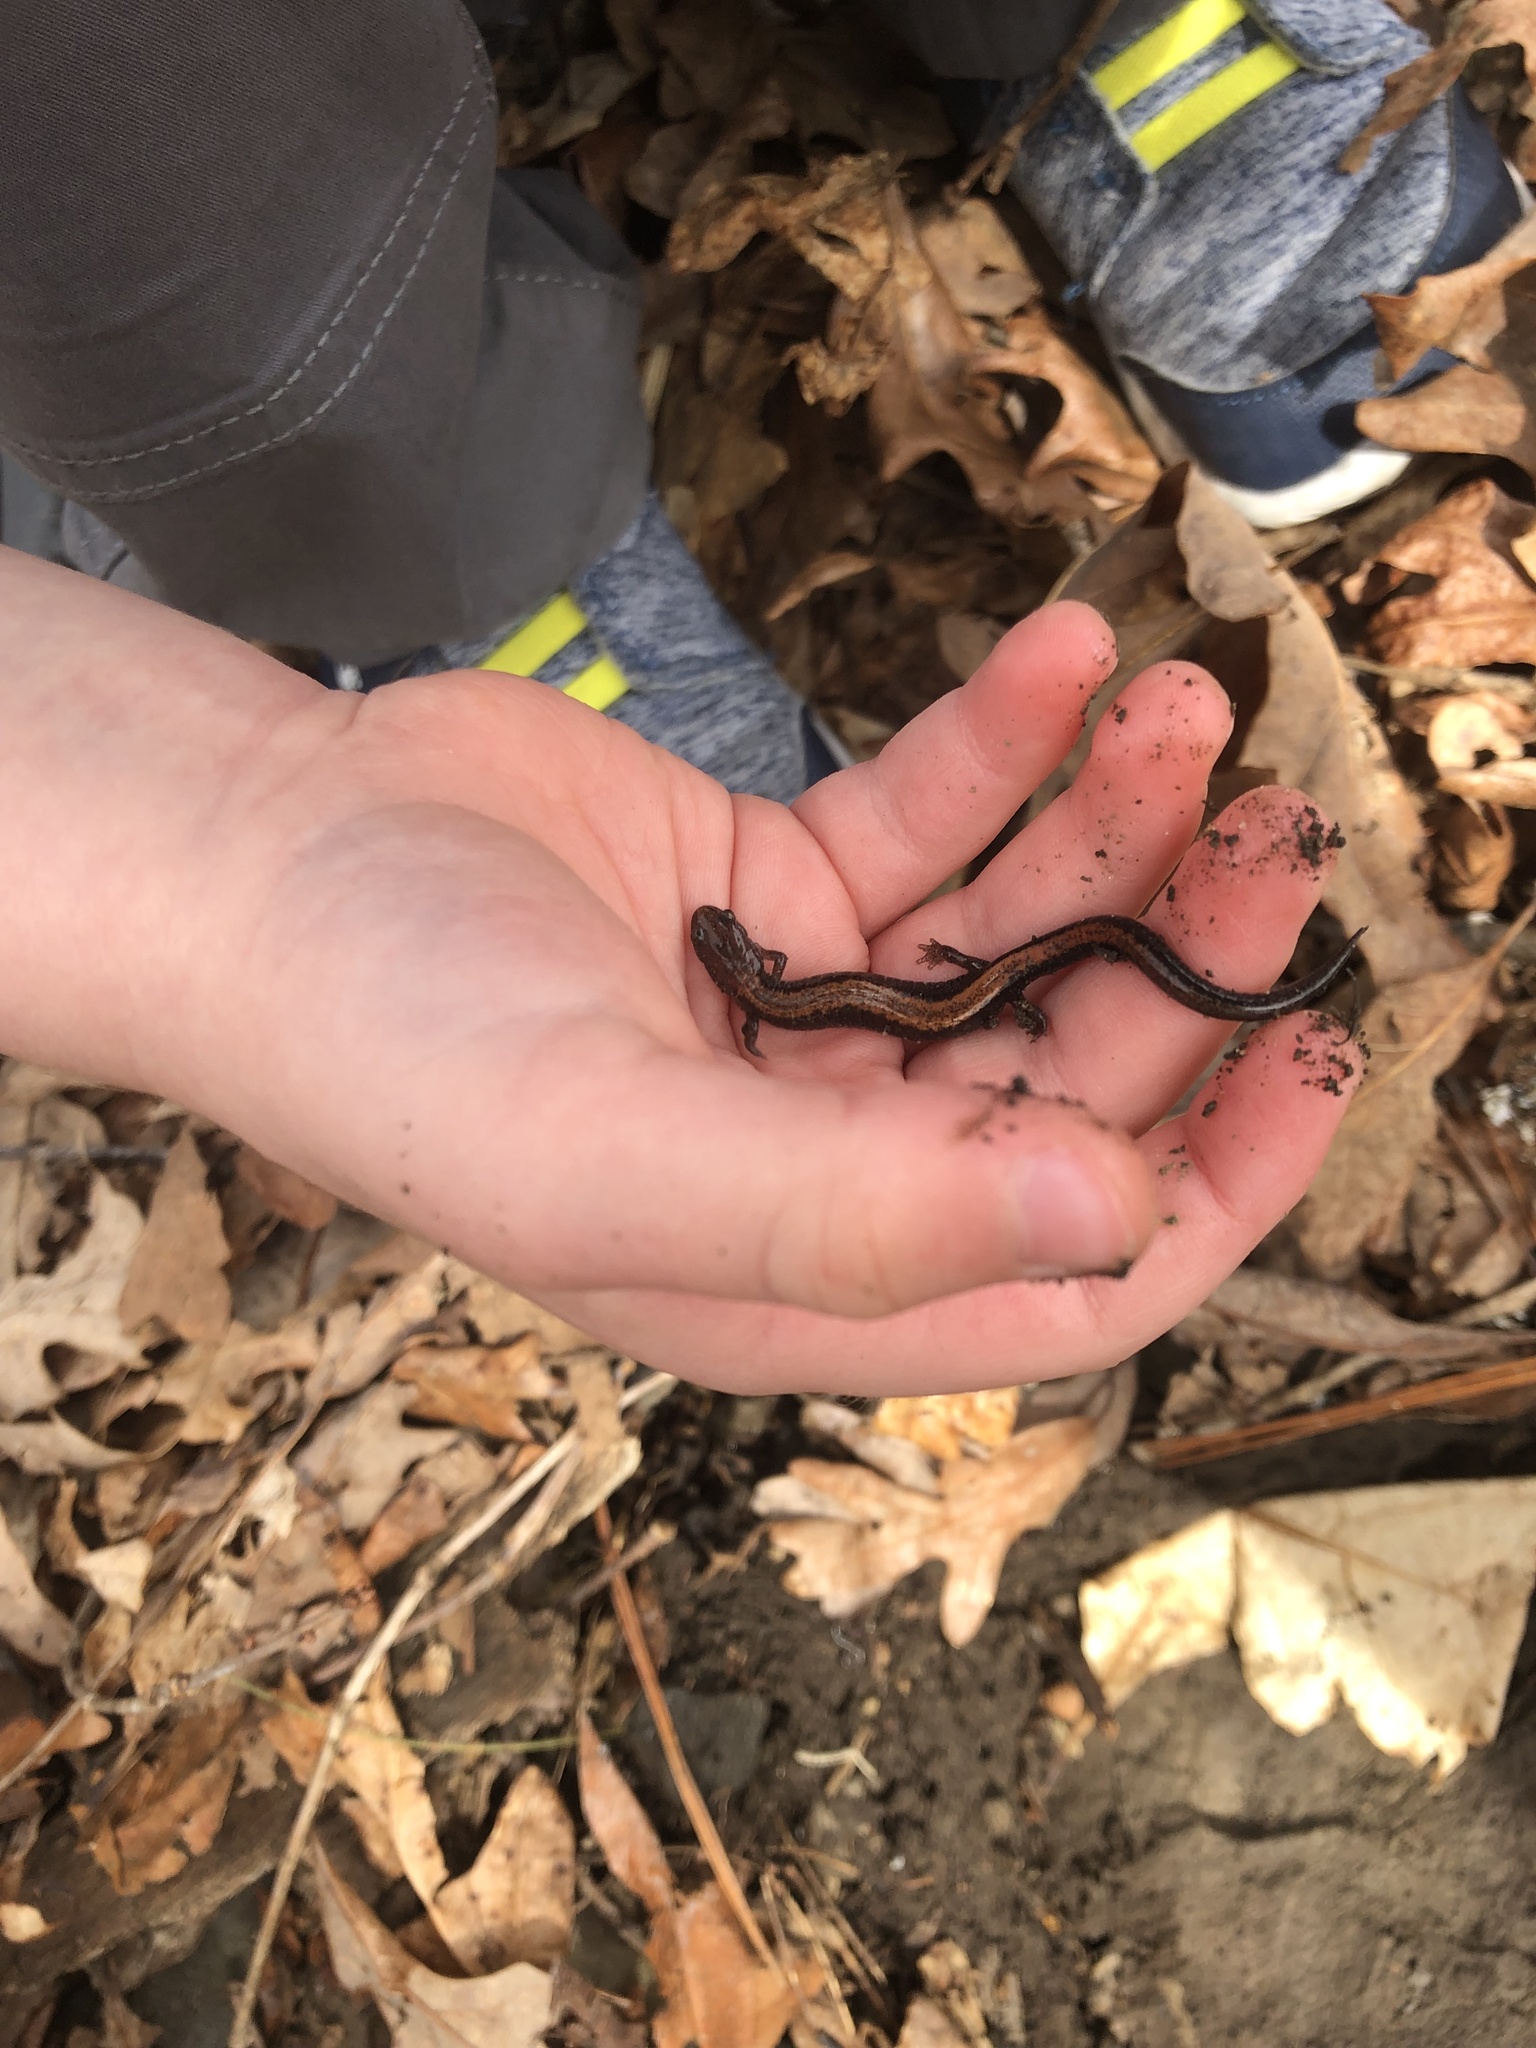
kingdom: Animalia
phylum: Chordata
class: Amphibia
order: Caudata
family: Plethodontidae
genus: Plethodon
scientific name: Plethodon cinereus
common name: Redback salamander
